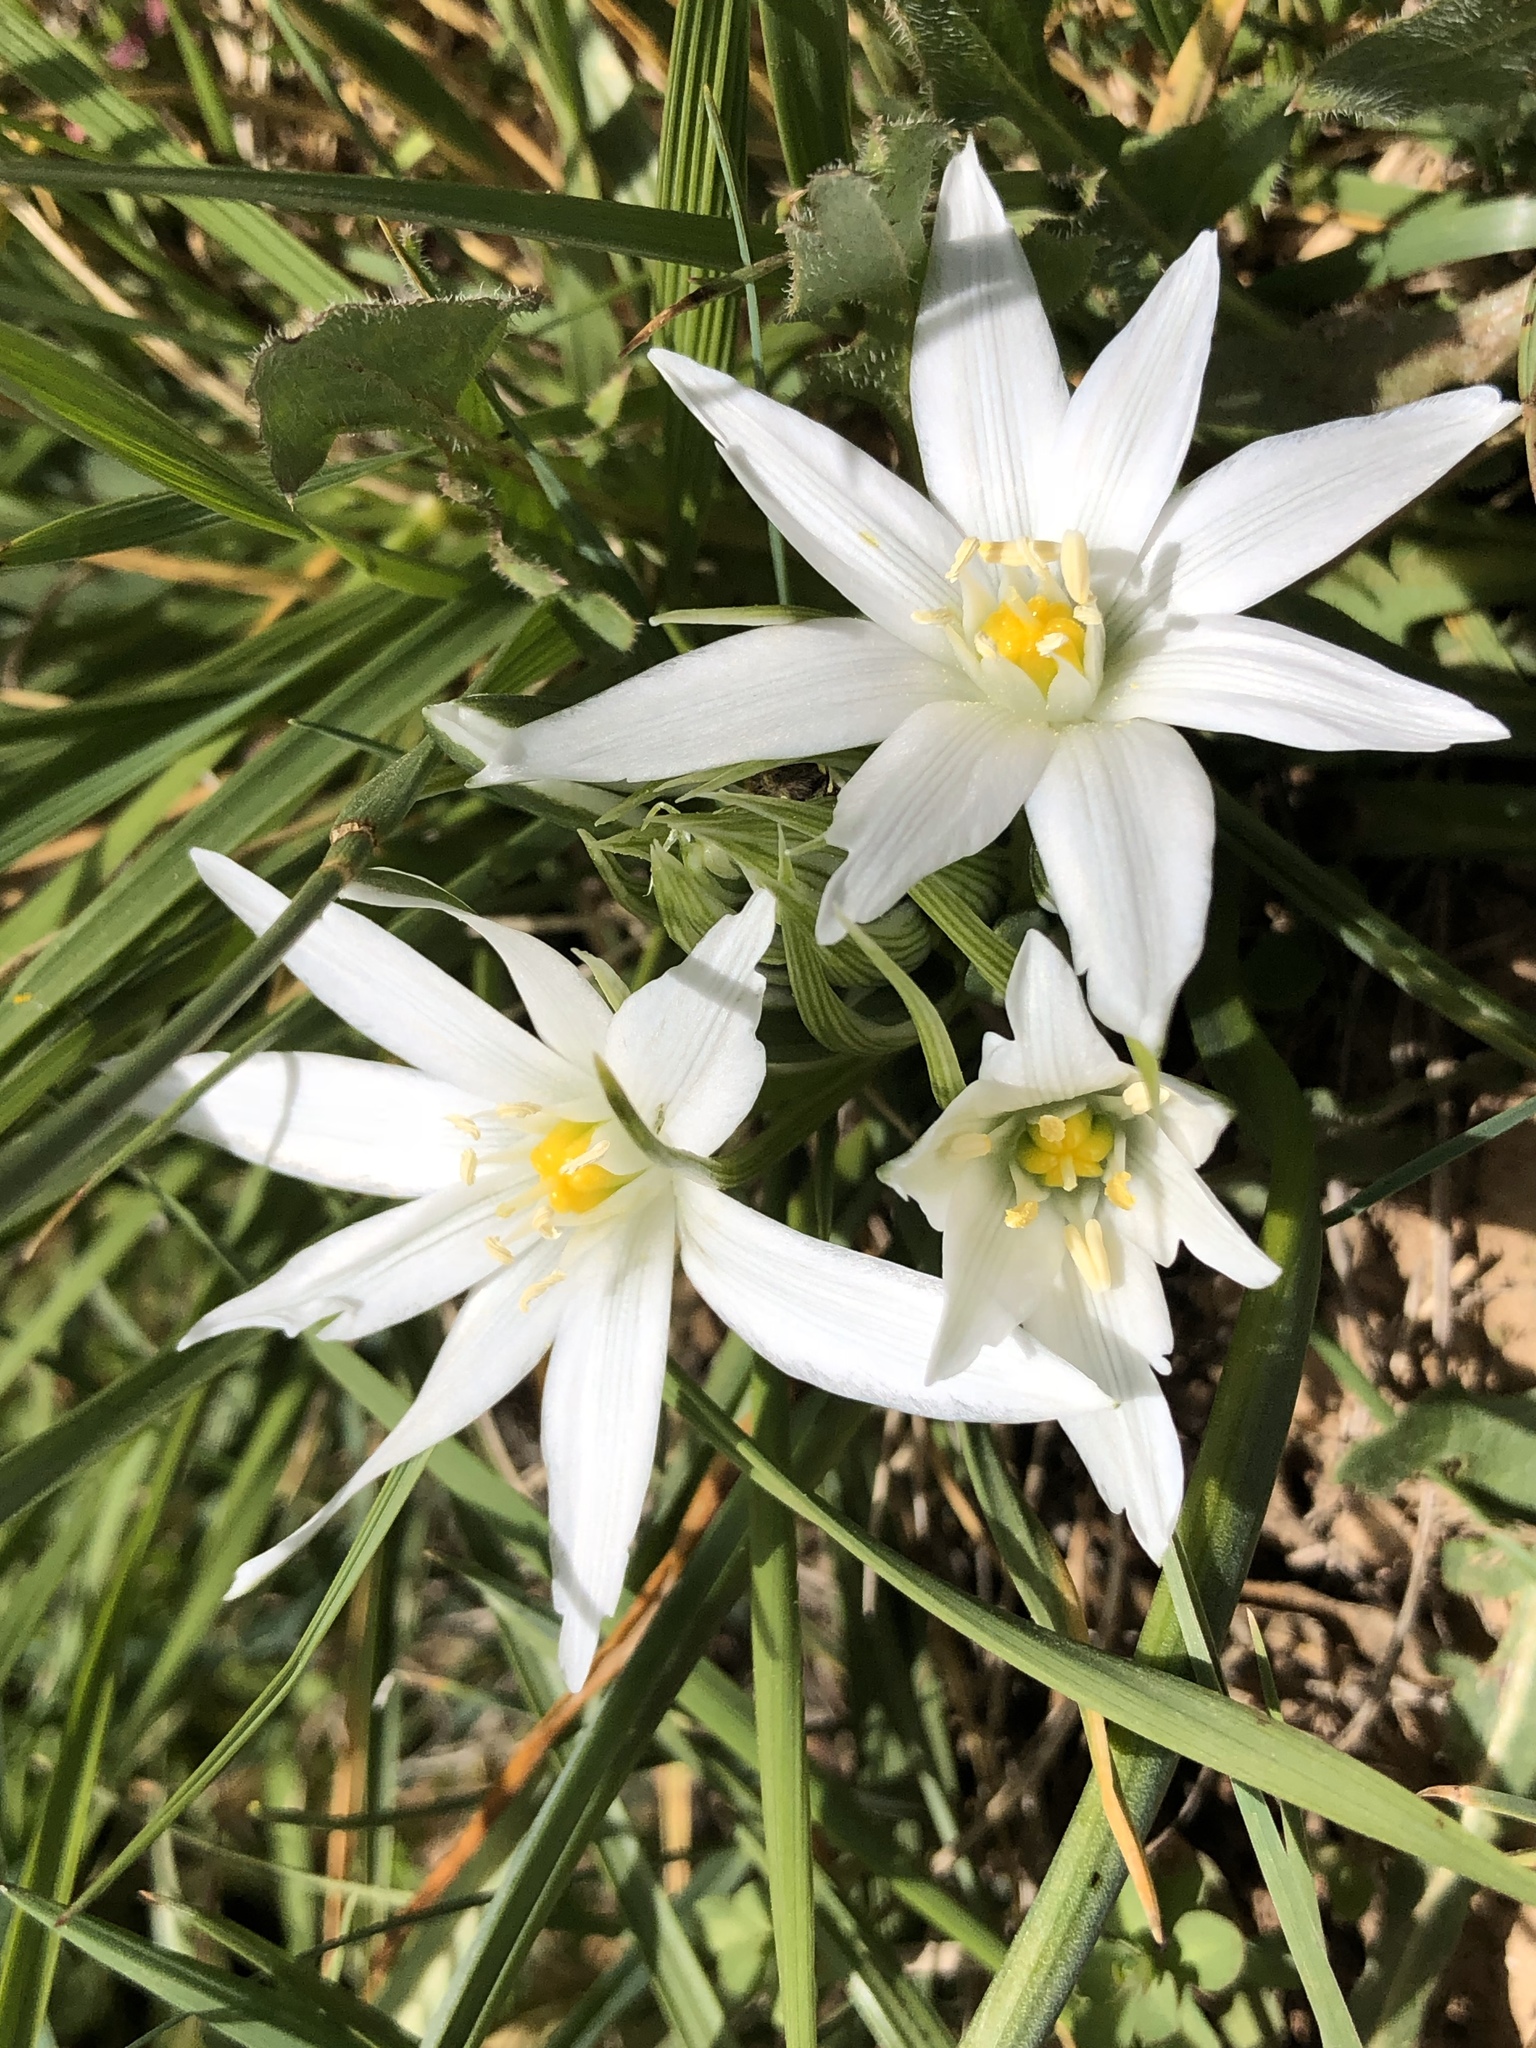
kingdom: Plantae
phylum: Tracheophyta
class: Liliopsida
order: Asparagales
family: Asparagaceae
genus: Ornithogalum
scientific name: Ornithogalum baeticum
